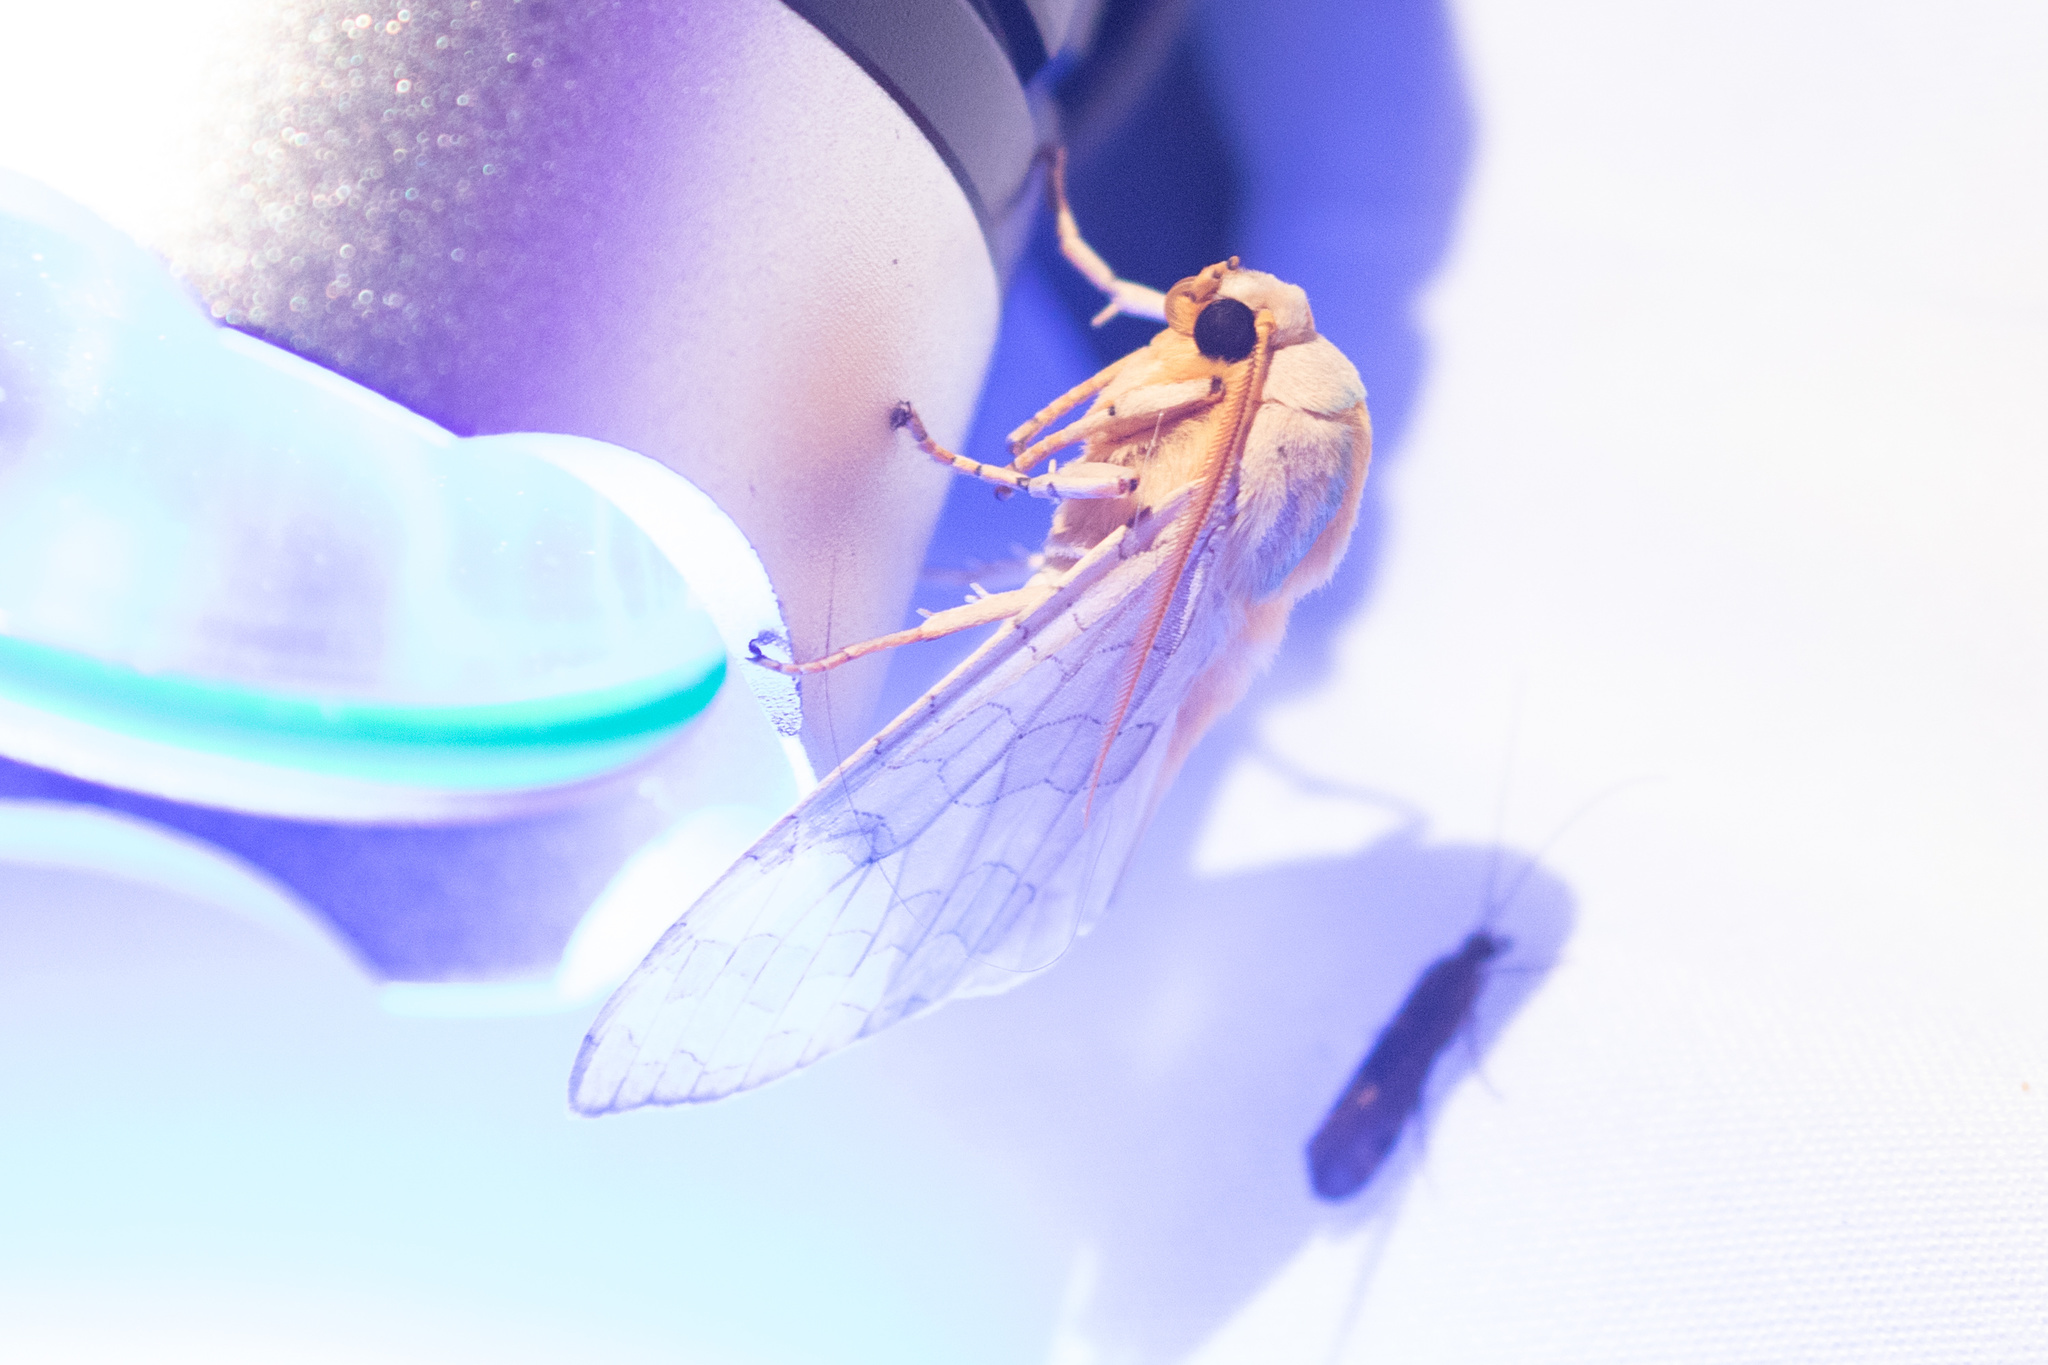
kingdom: Animalia
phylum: Arthropoda
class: Insecta
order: Lepidoptera
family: Erebidae
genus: Halysidota
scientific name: Halysidota
